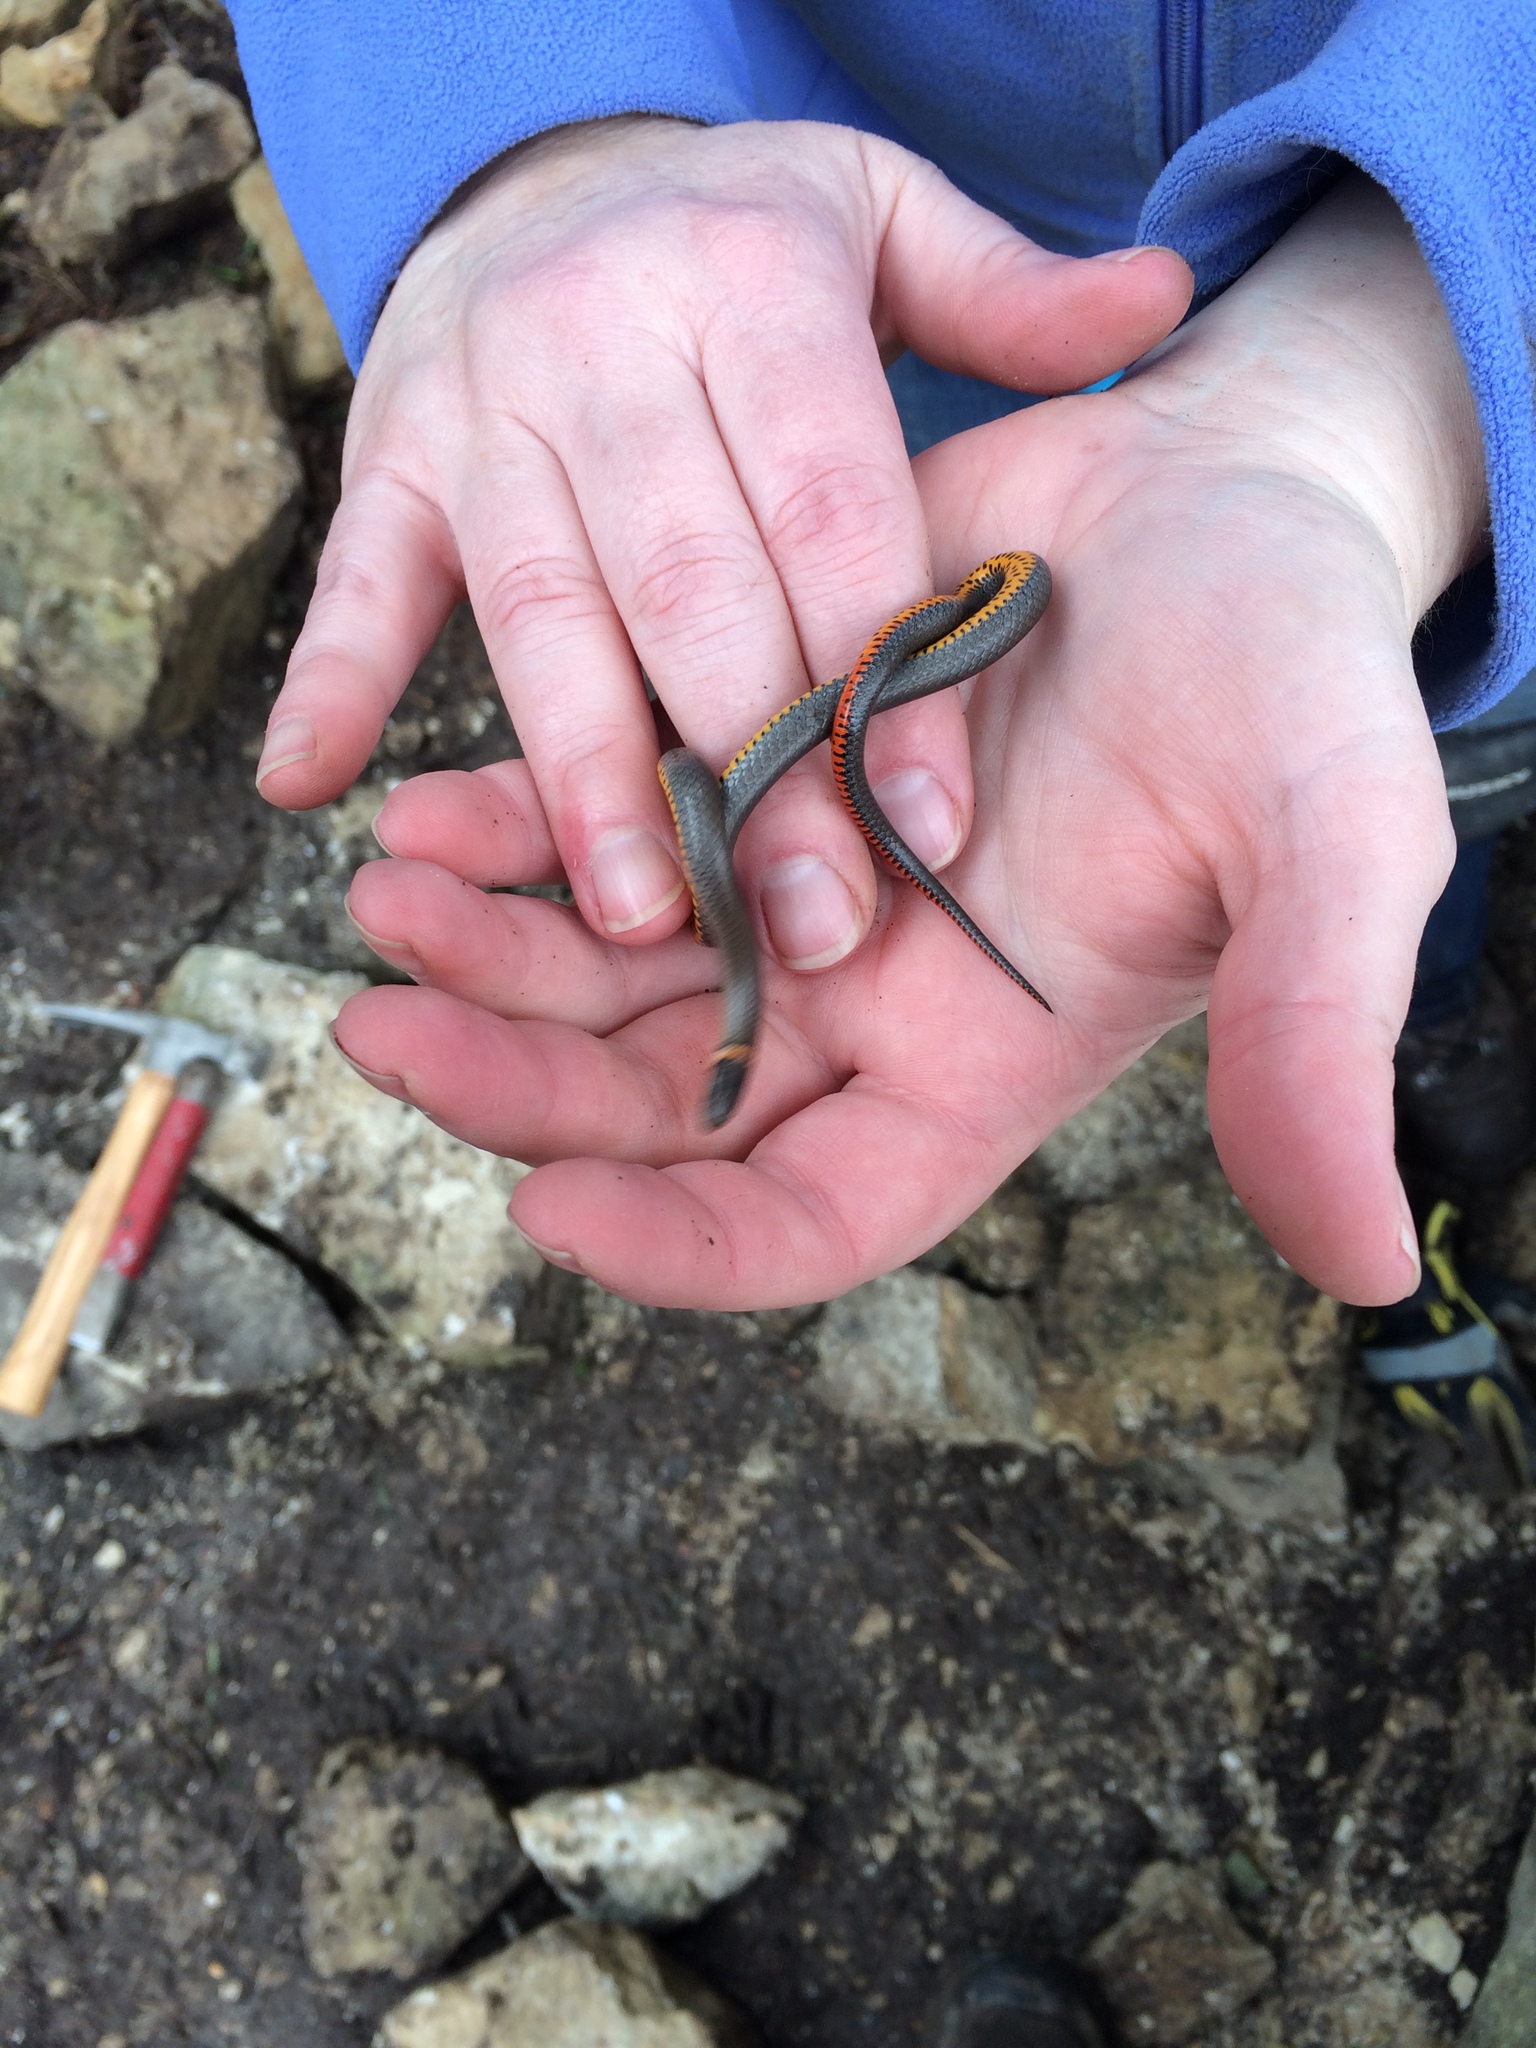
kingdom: Animalia
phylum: Chordata
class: Squamata
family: Colubridae
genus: Diadophis
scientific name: Diadophis punctatus
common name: Ringneck snake
